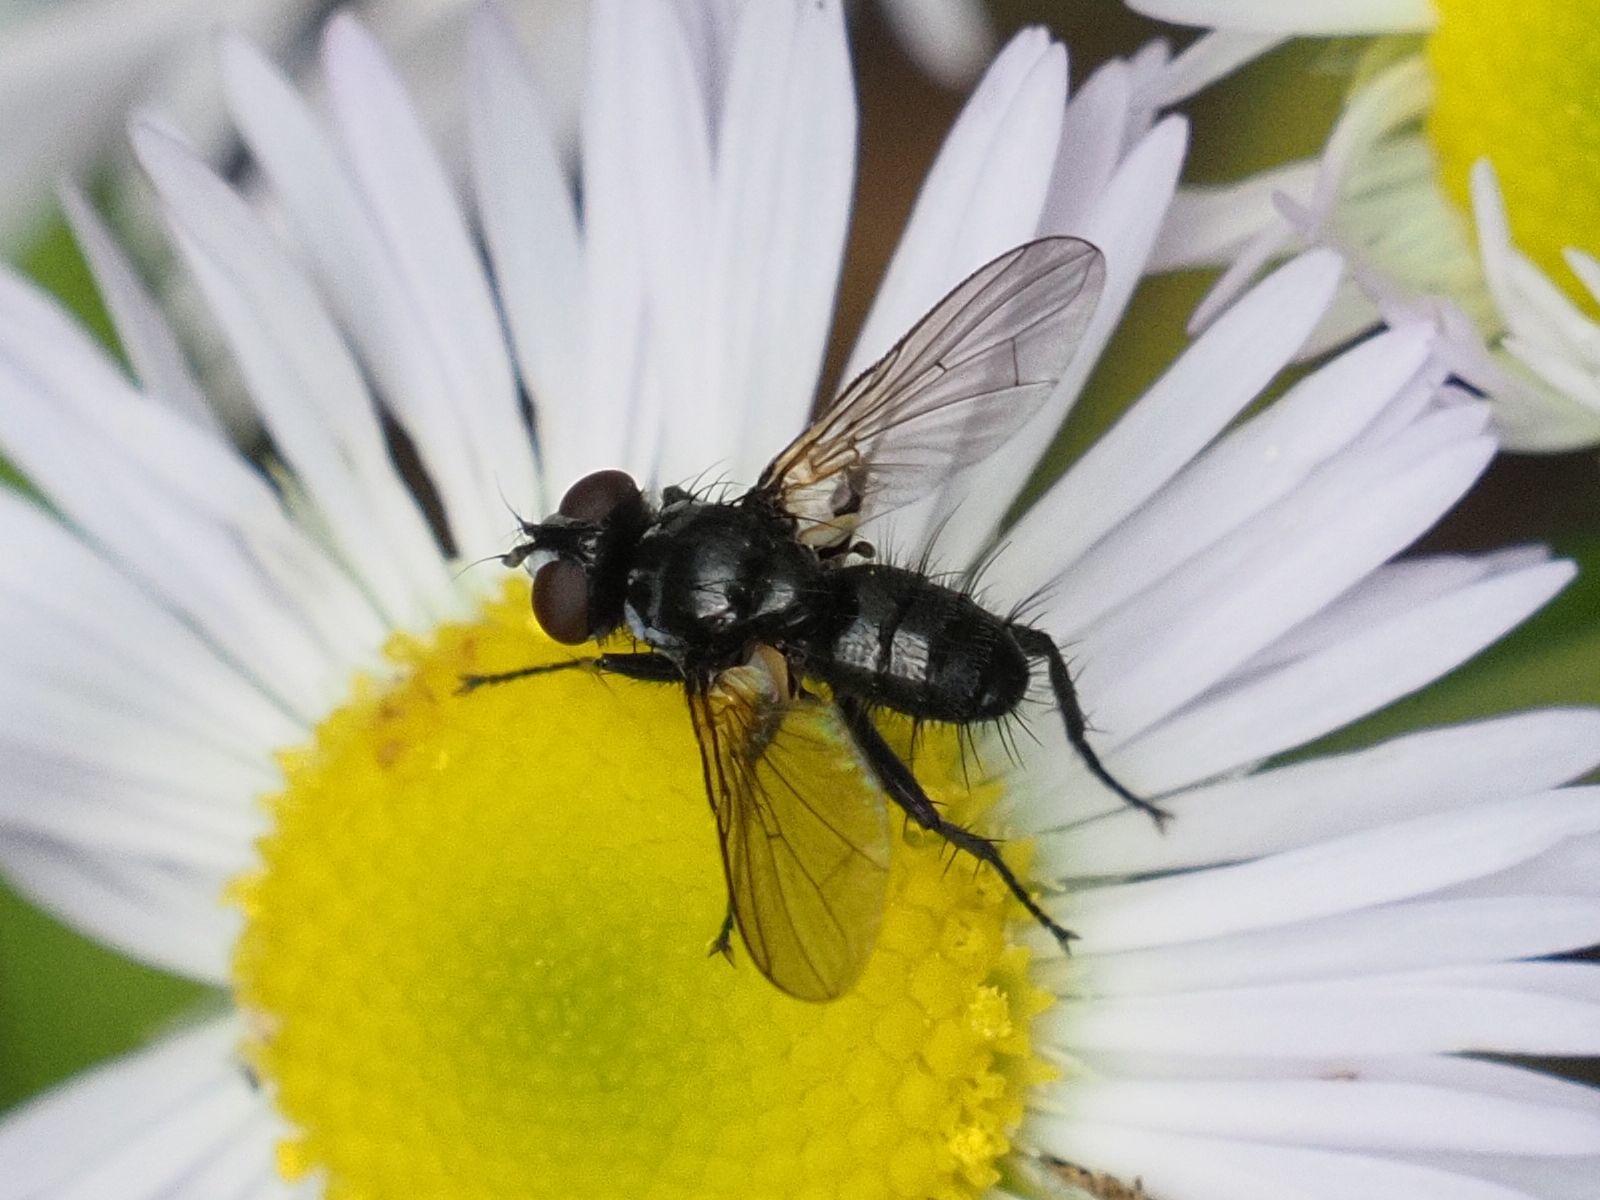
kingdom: Animalia
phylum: Arthropoda
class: Insecta
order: Diptera
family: Tachinidae
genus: Phania
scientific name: Phania funesta
